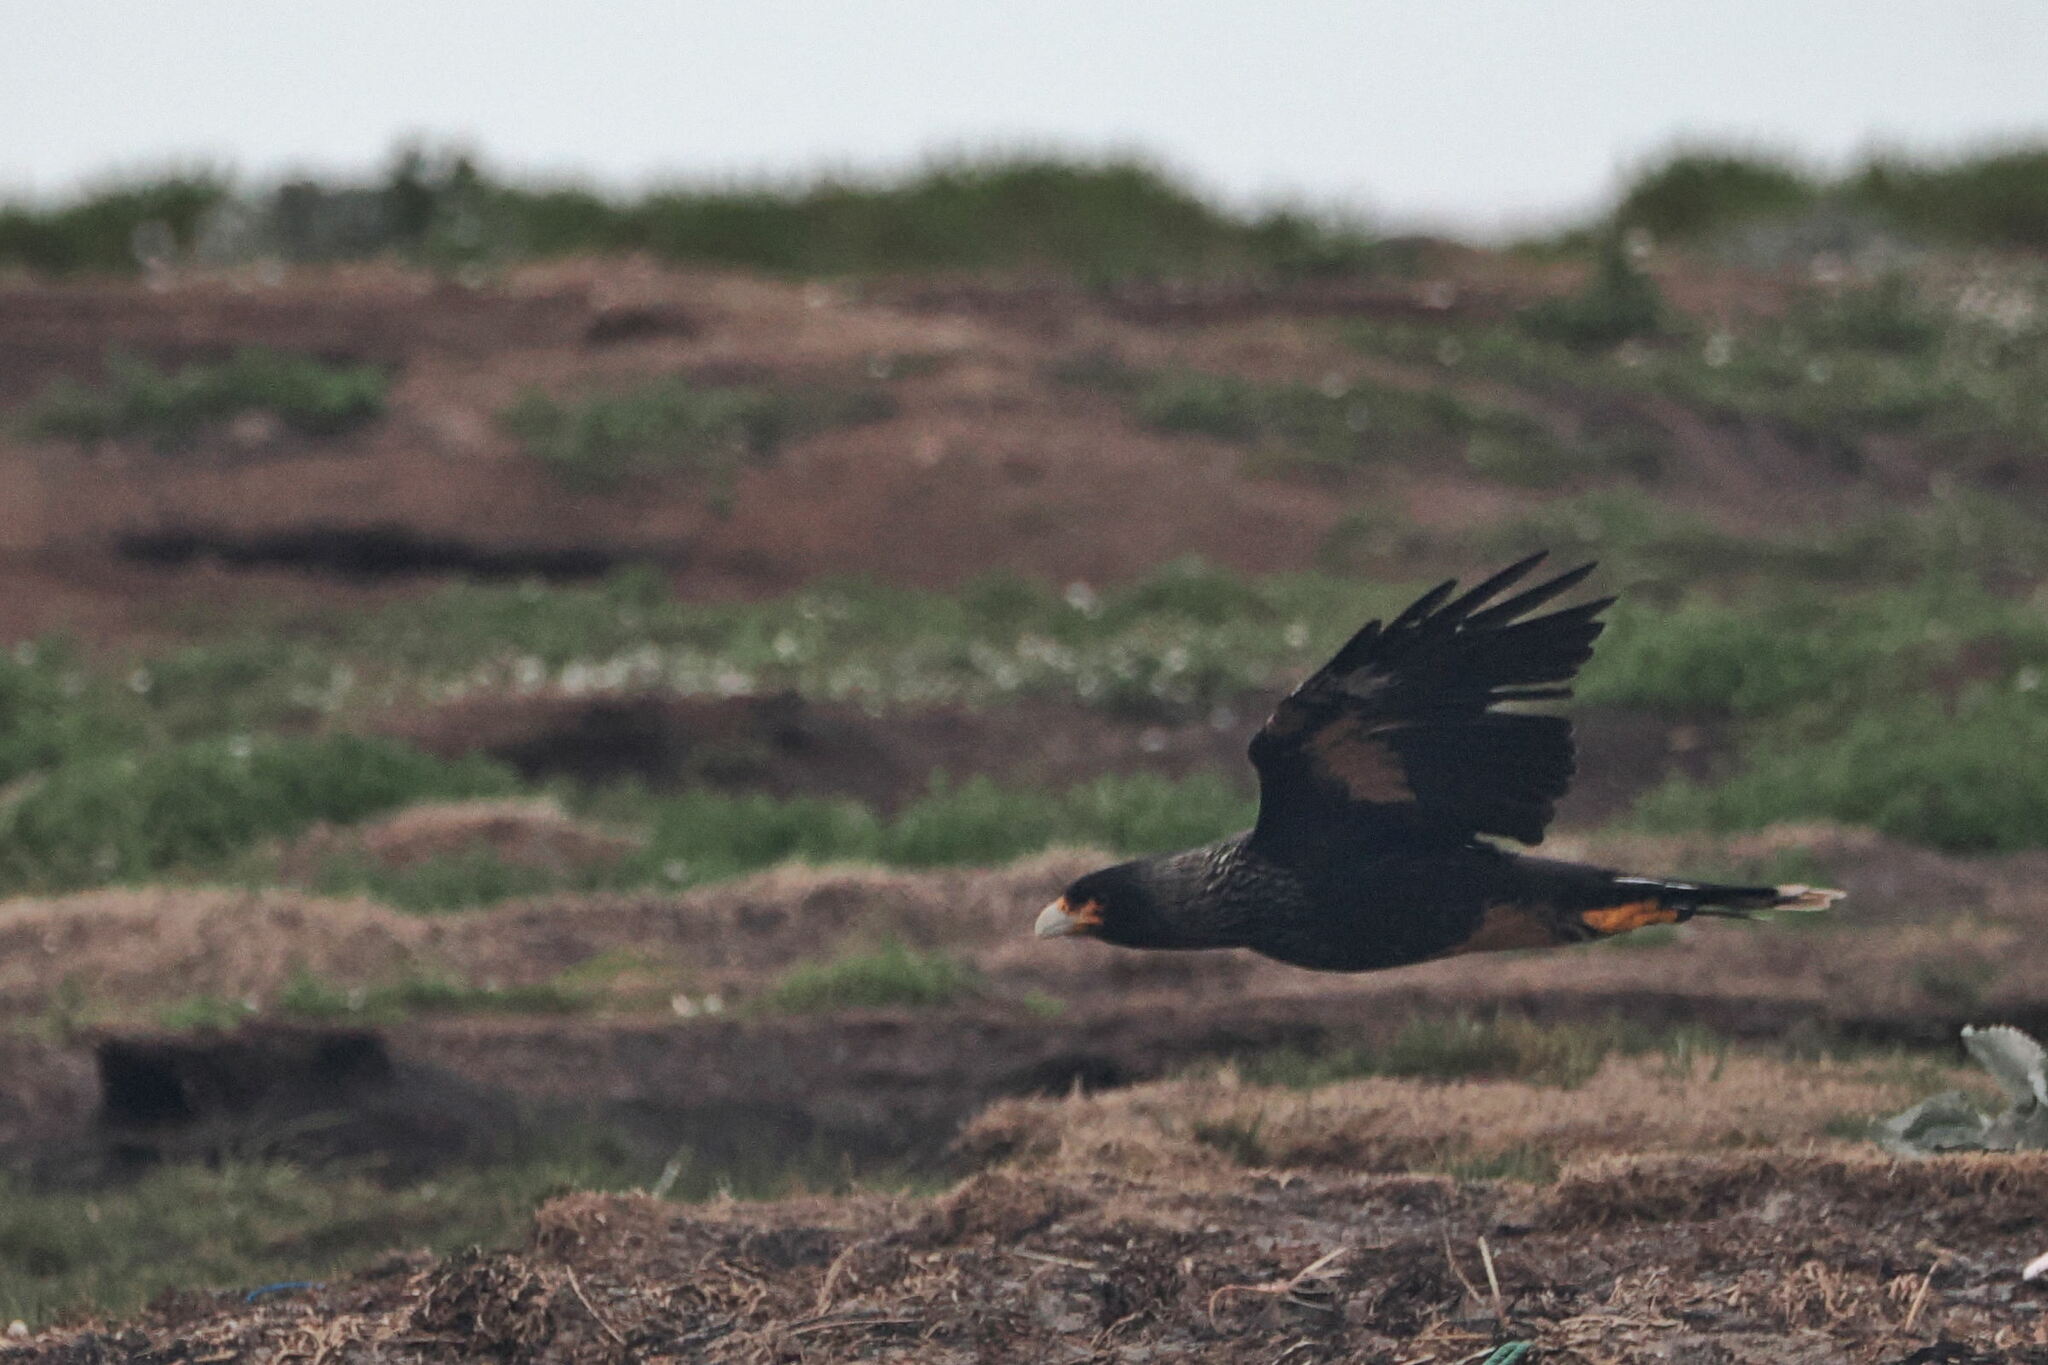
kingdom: Animalia
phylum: Chordata
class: Aves
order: Falconiformes
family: Falconidae
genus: Daptrius
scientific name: Daptrius
